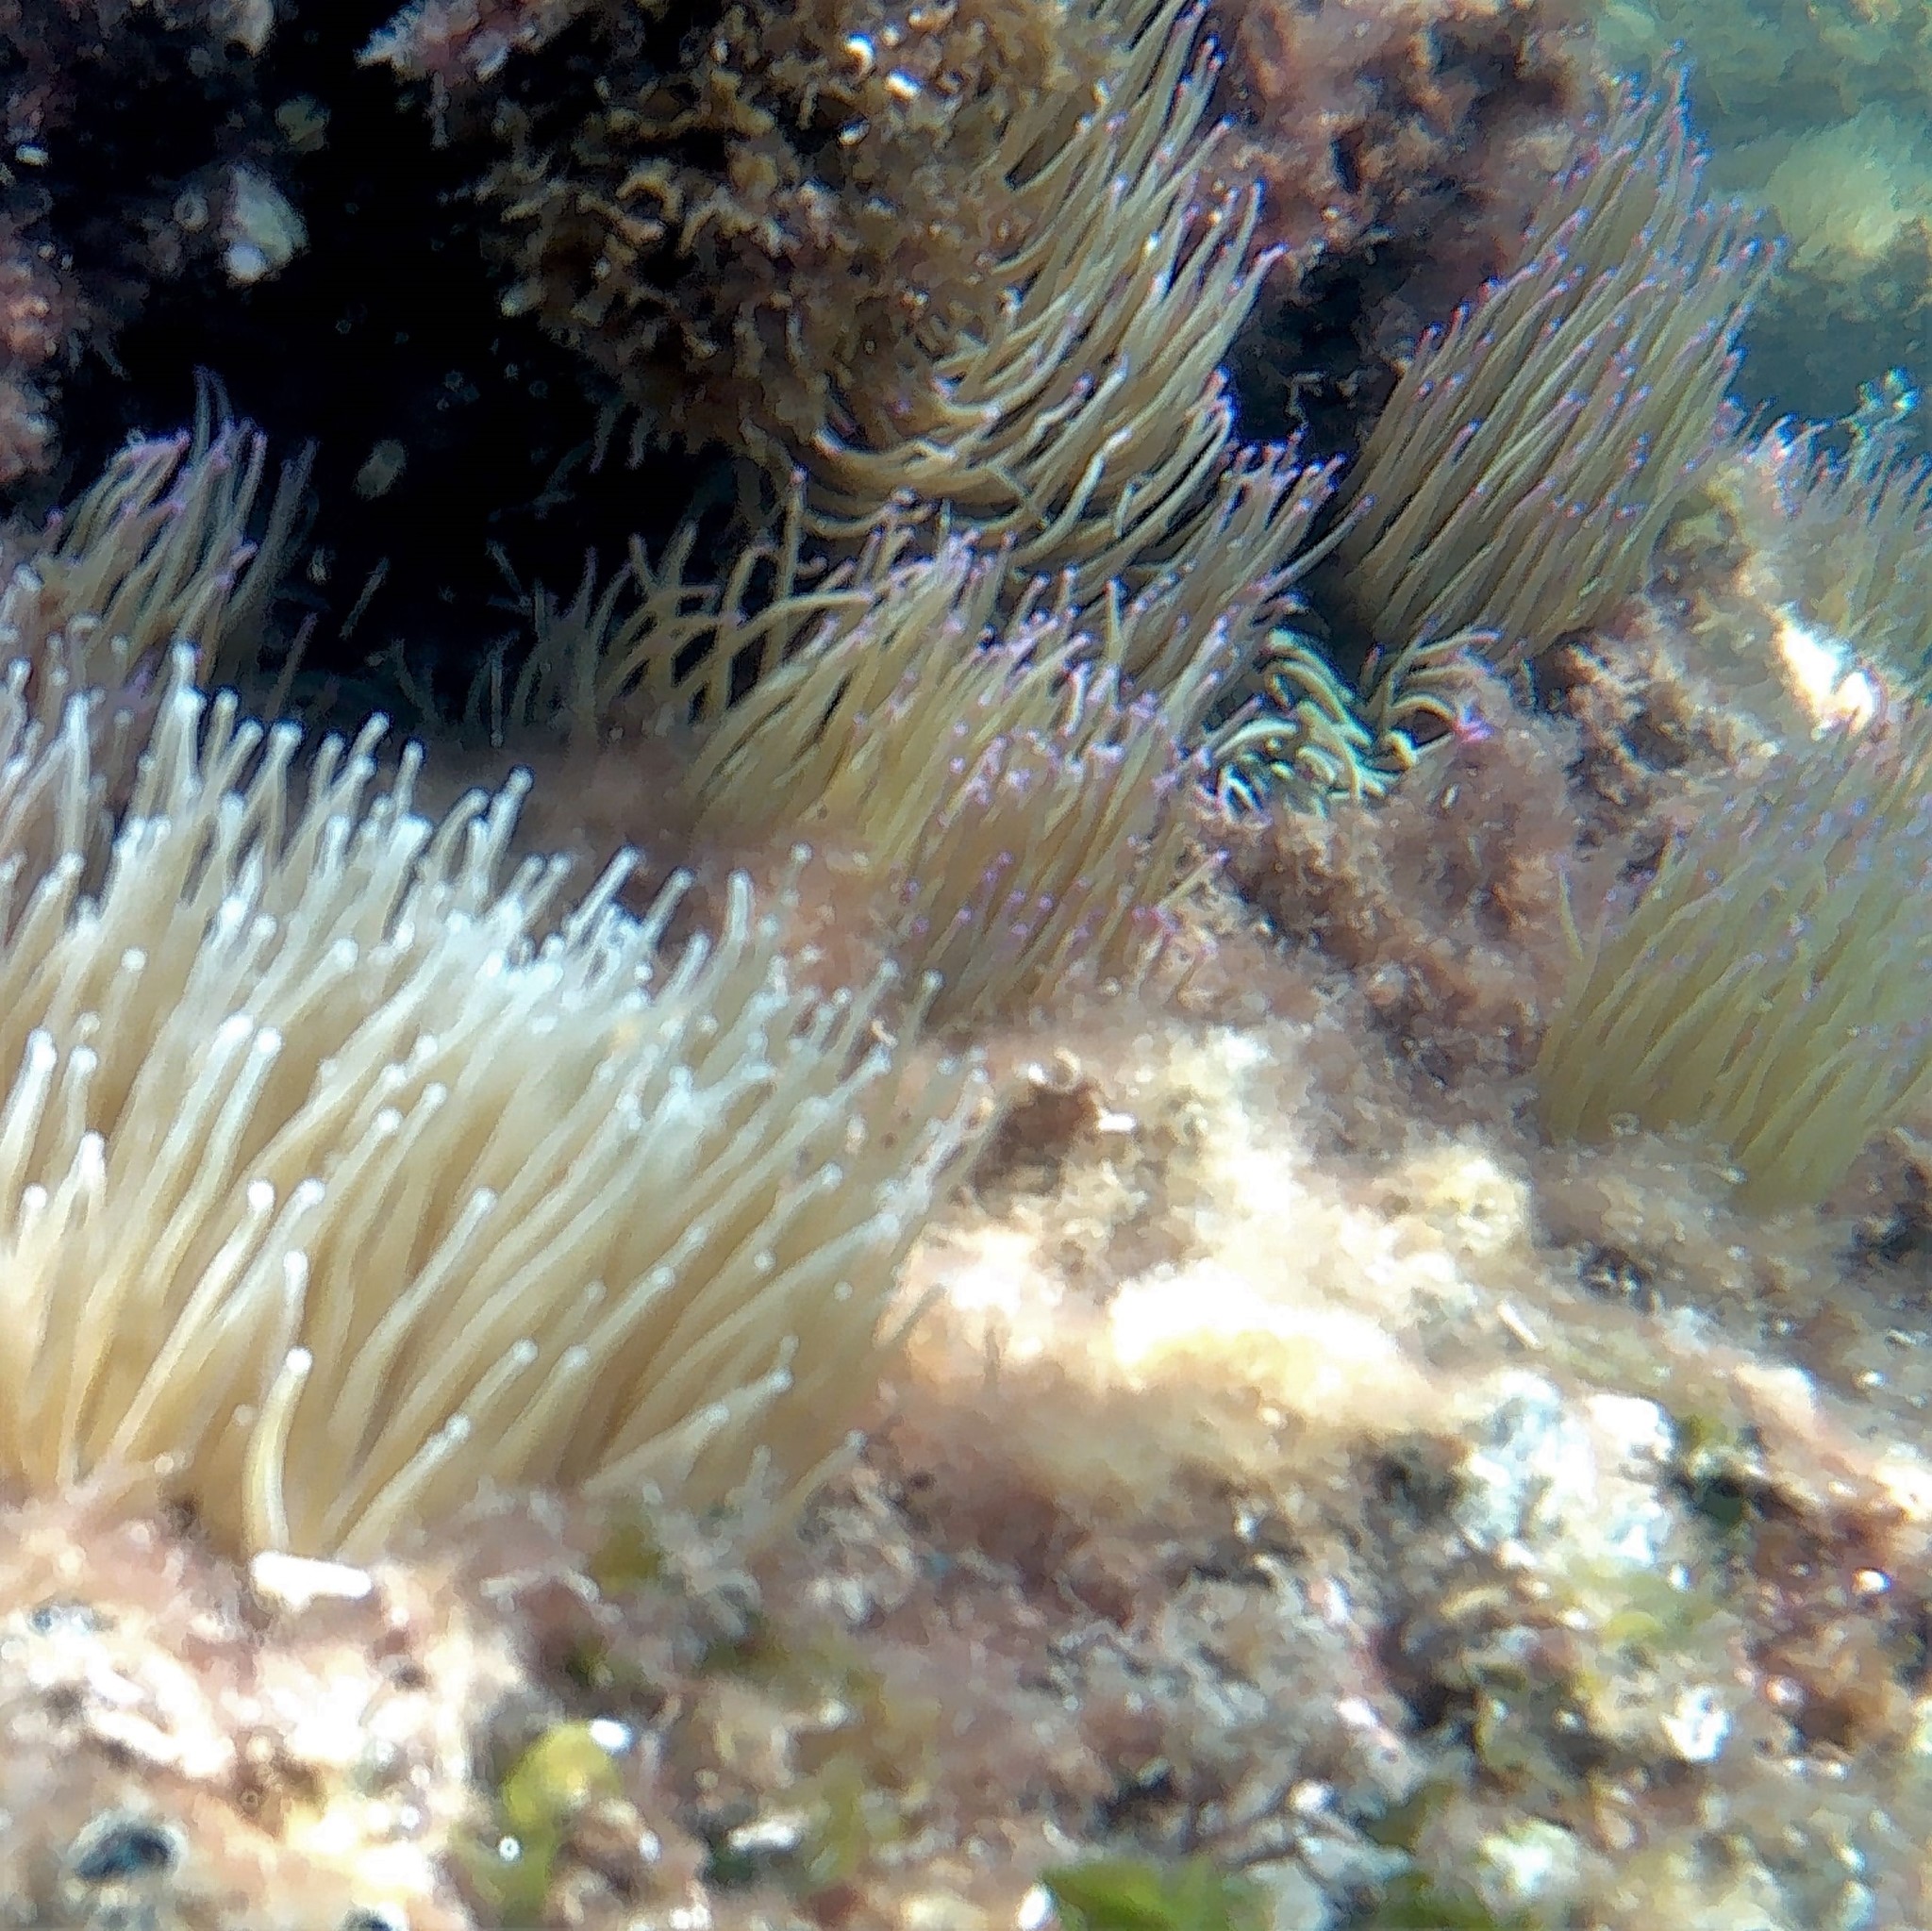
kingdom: Animalia
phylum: Cnidaria
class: Anthozoa
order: Actiniaria
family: Actiniidae
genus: Anemonia
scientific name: Anemonia viridis
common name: Snakelocks anemone
